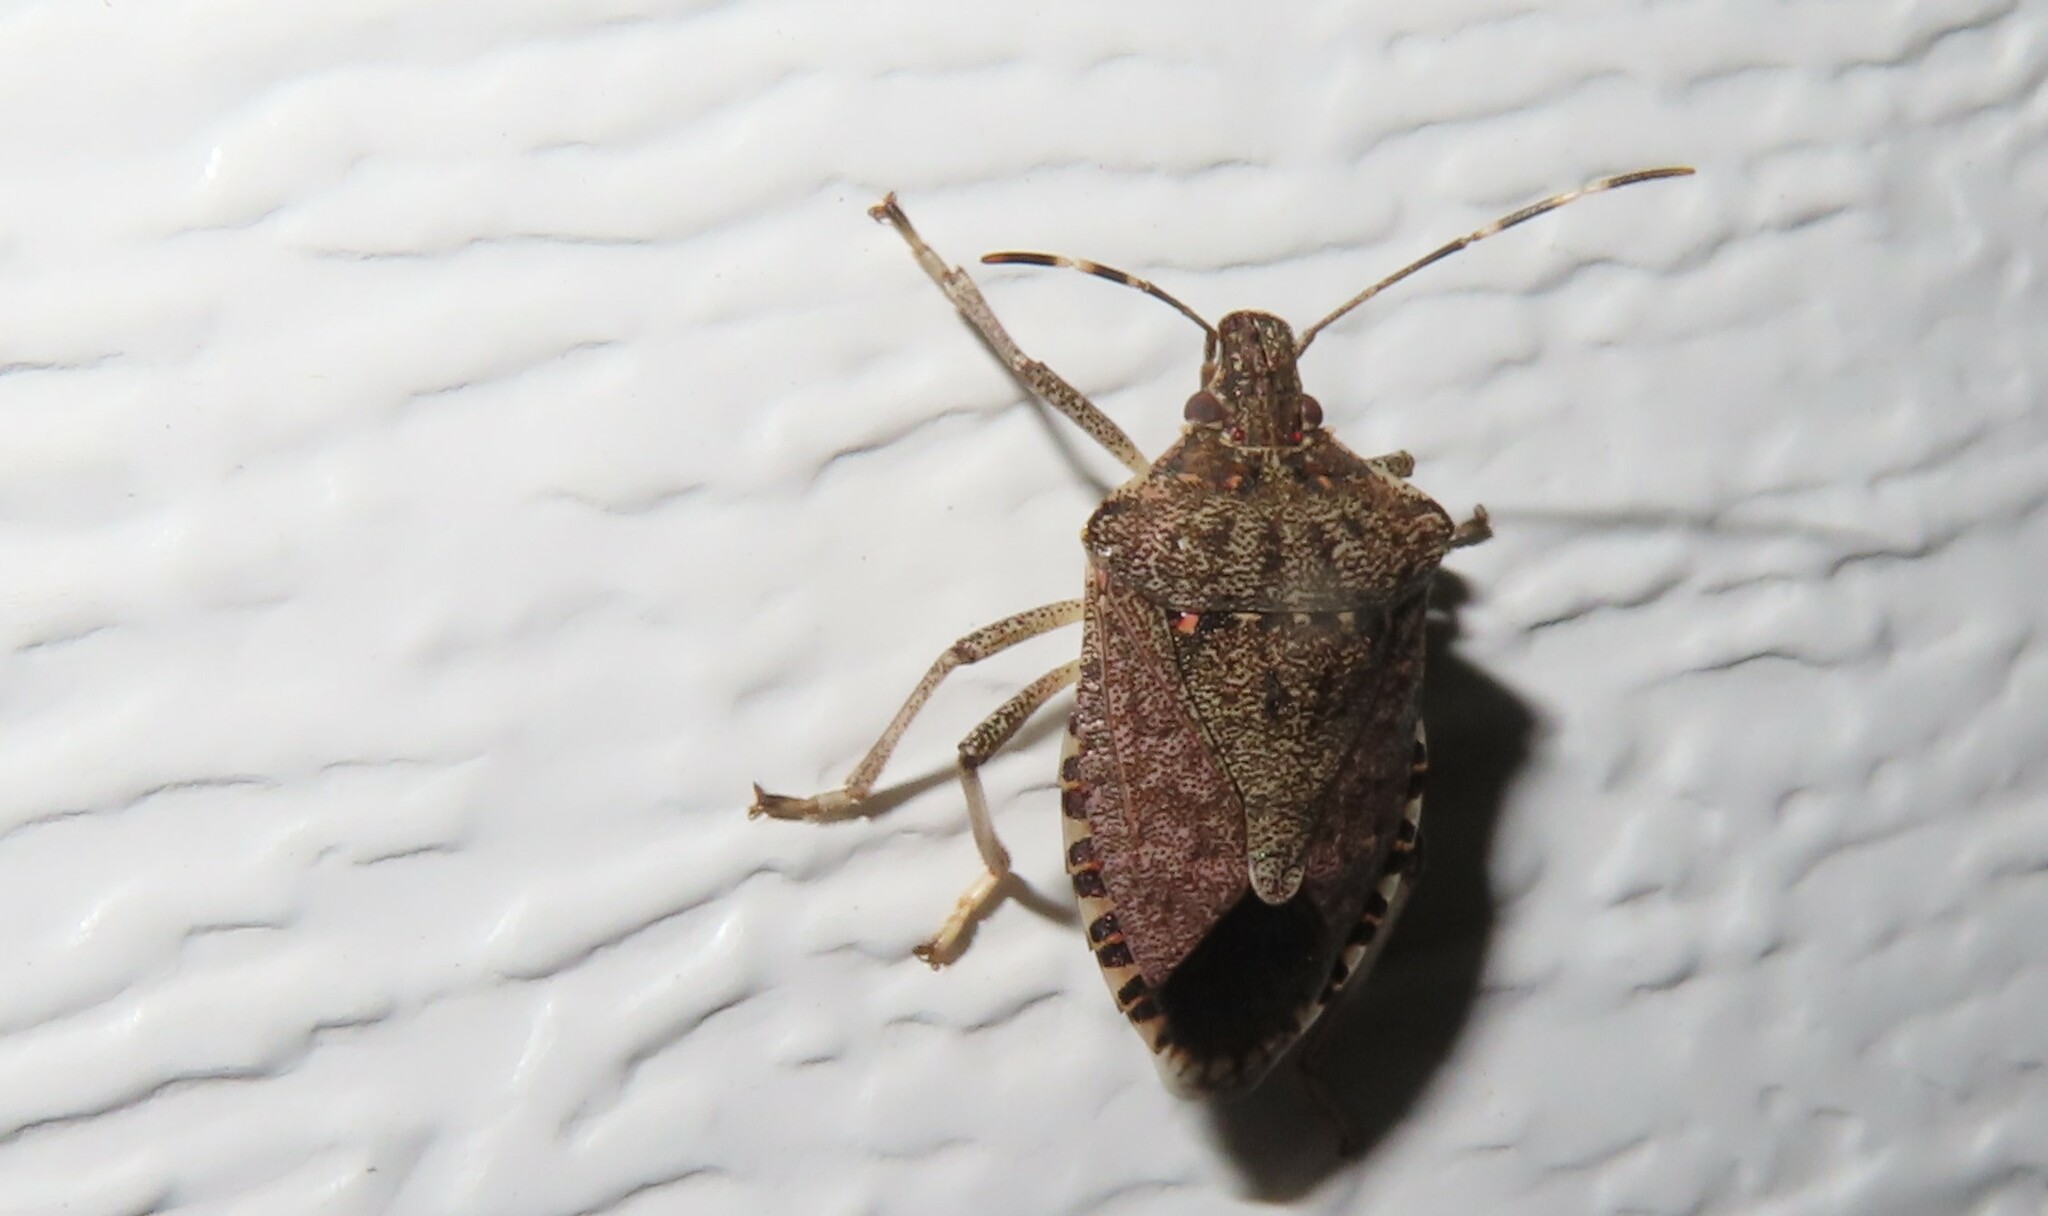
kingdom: Animalia
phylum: Arthropoda
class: Insecta
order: Hemiptera
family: Pentatomidae
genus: Halyomorpha
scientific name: Halyomorpha halys
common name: Brown marmorated stink bug
